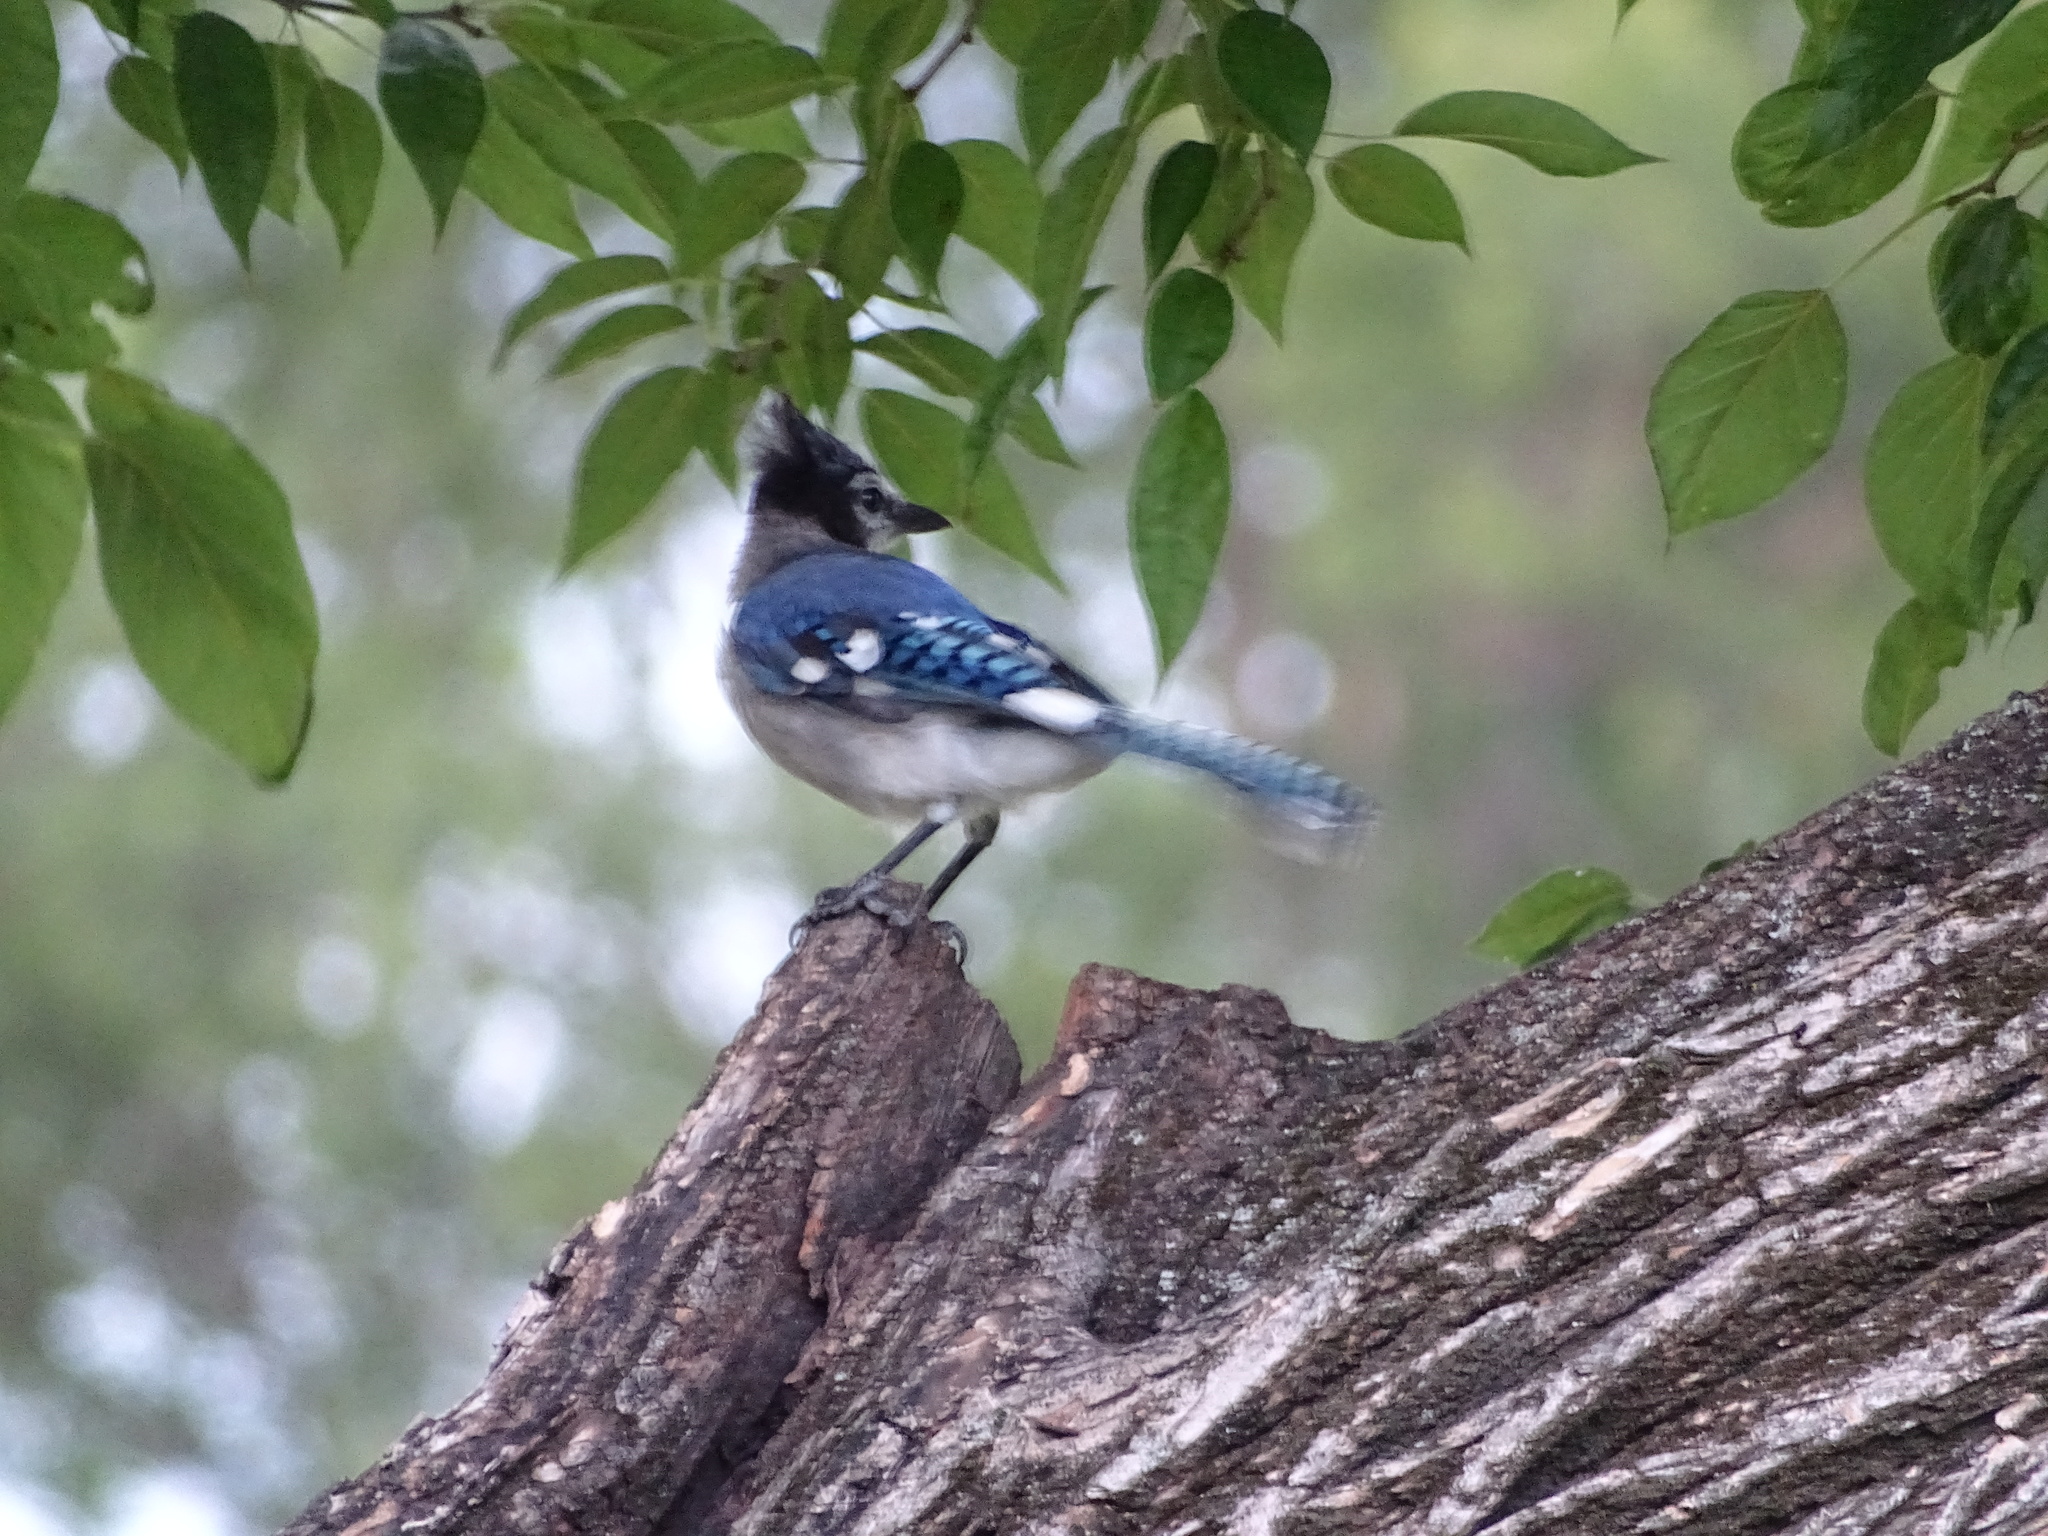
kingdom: Animalia
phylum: Chordata
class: Aves
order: Passeriformes
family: Corvidae
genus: Cyanocitta
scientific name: Cyanocitta cristata
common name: Blue jay
